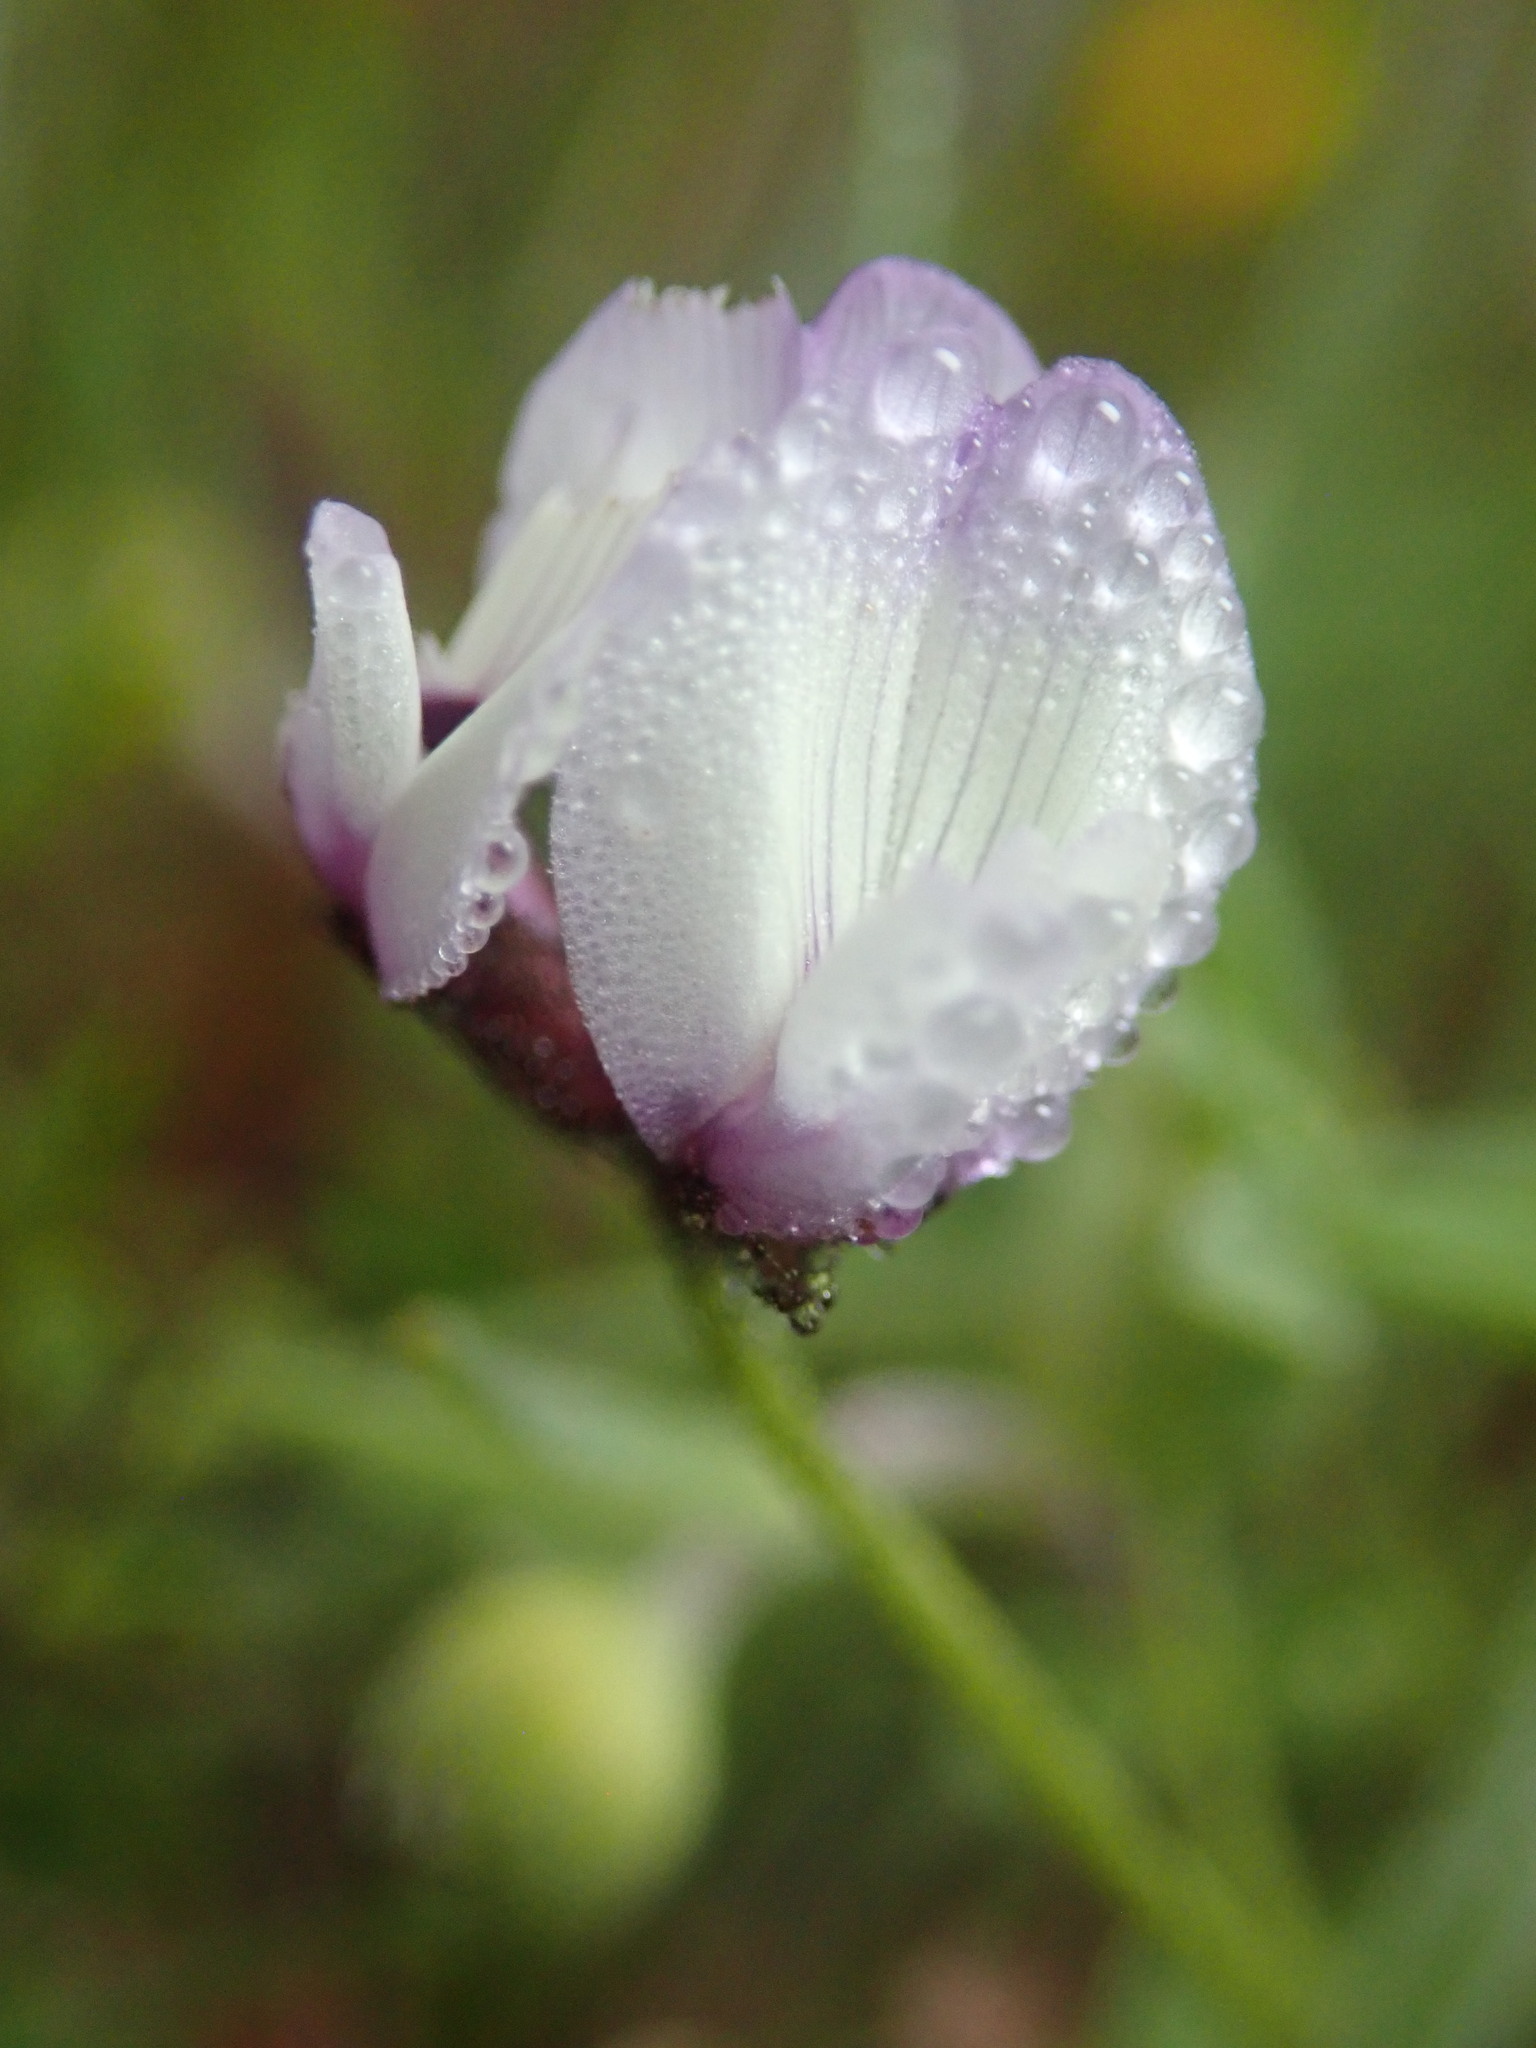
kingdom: Plantae
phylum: Tracheophyta
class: Magnoliopsida
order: Fabales
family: Fabaceae
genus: Astragalus
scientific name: Astragalus gambelianus
